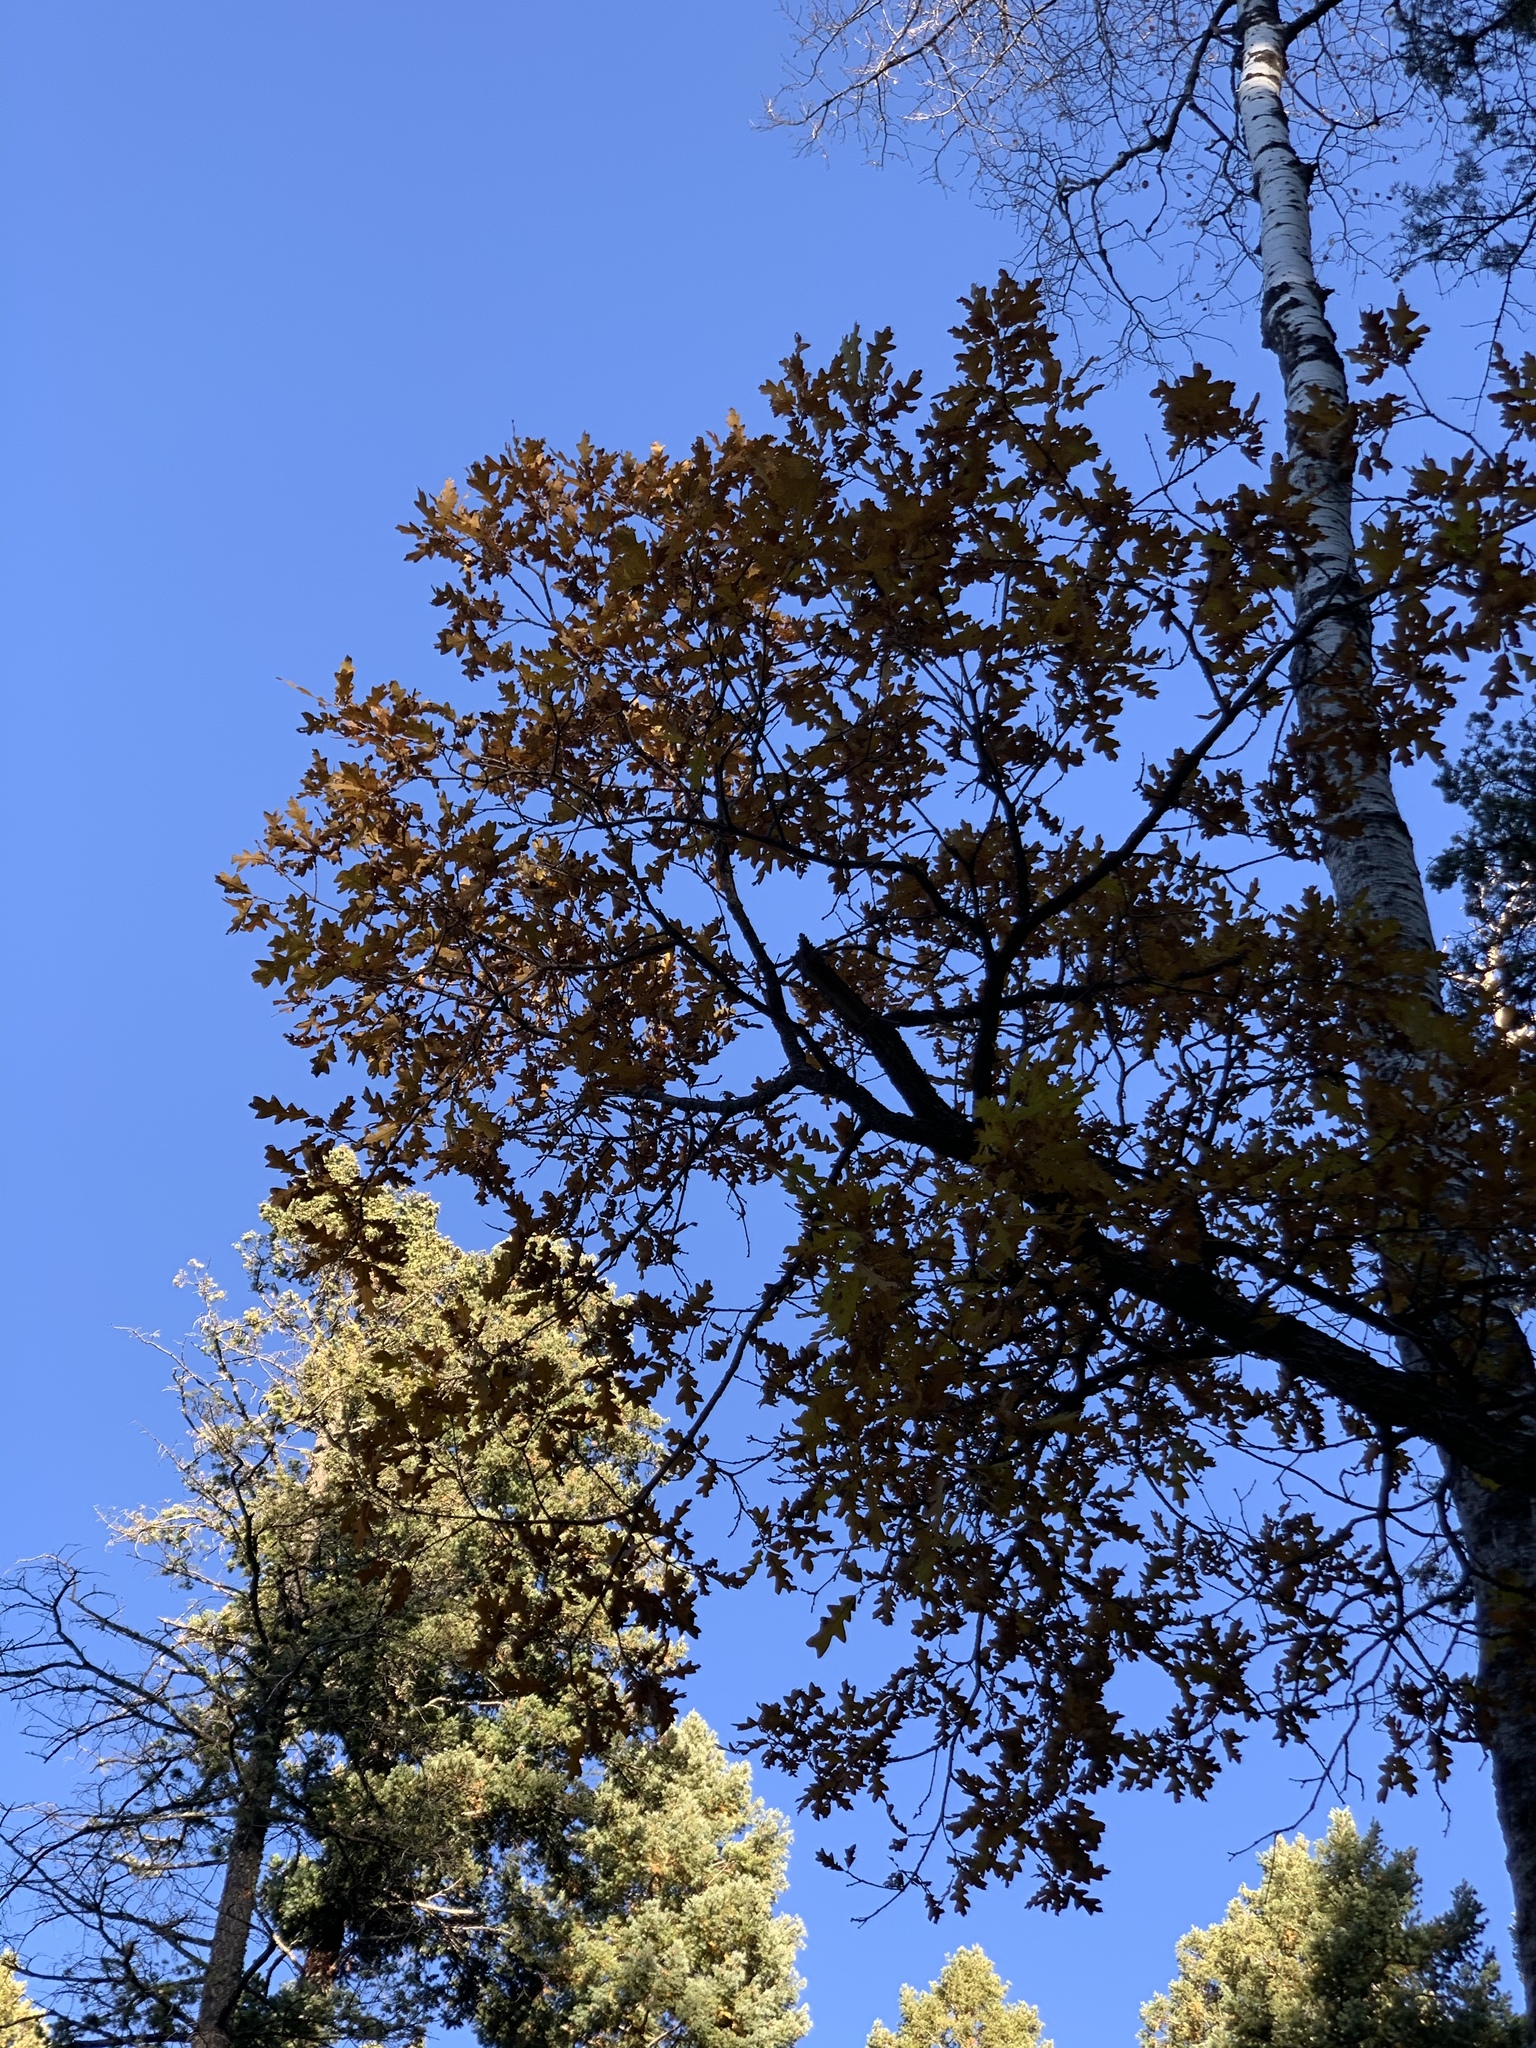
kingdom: Plantae
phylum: Tracheophyta
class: Magnoliopsida
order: Fagales
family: Fagaceae
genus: Quercus
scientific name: Quercus gambelii
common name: Gambel oak
